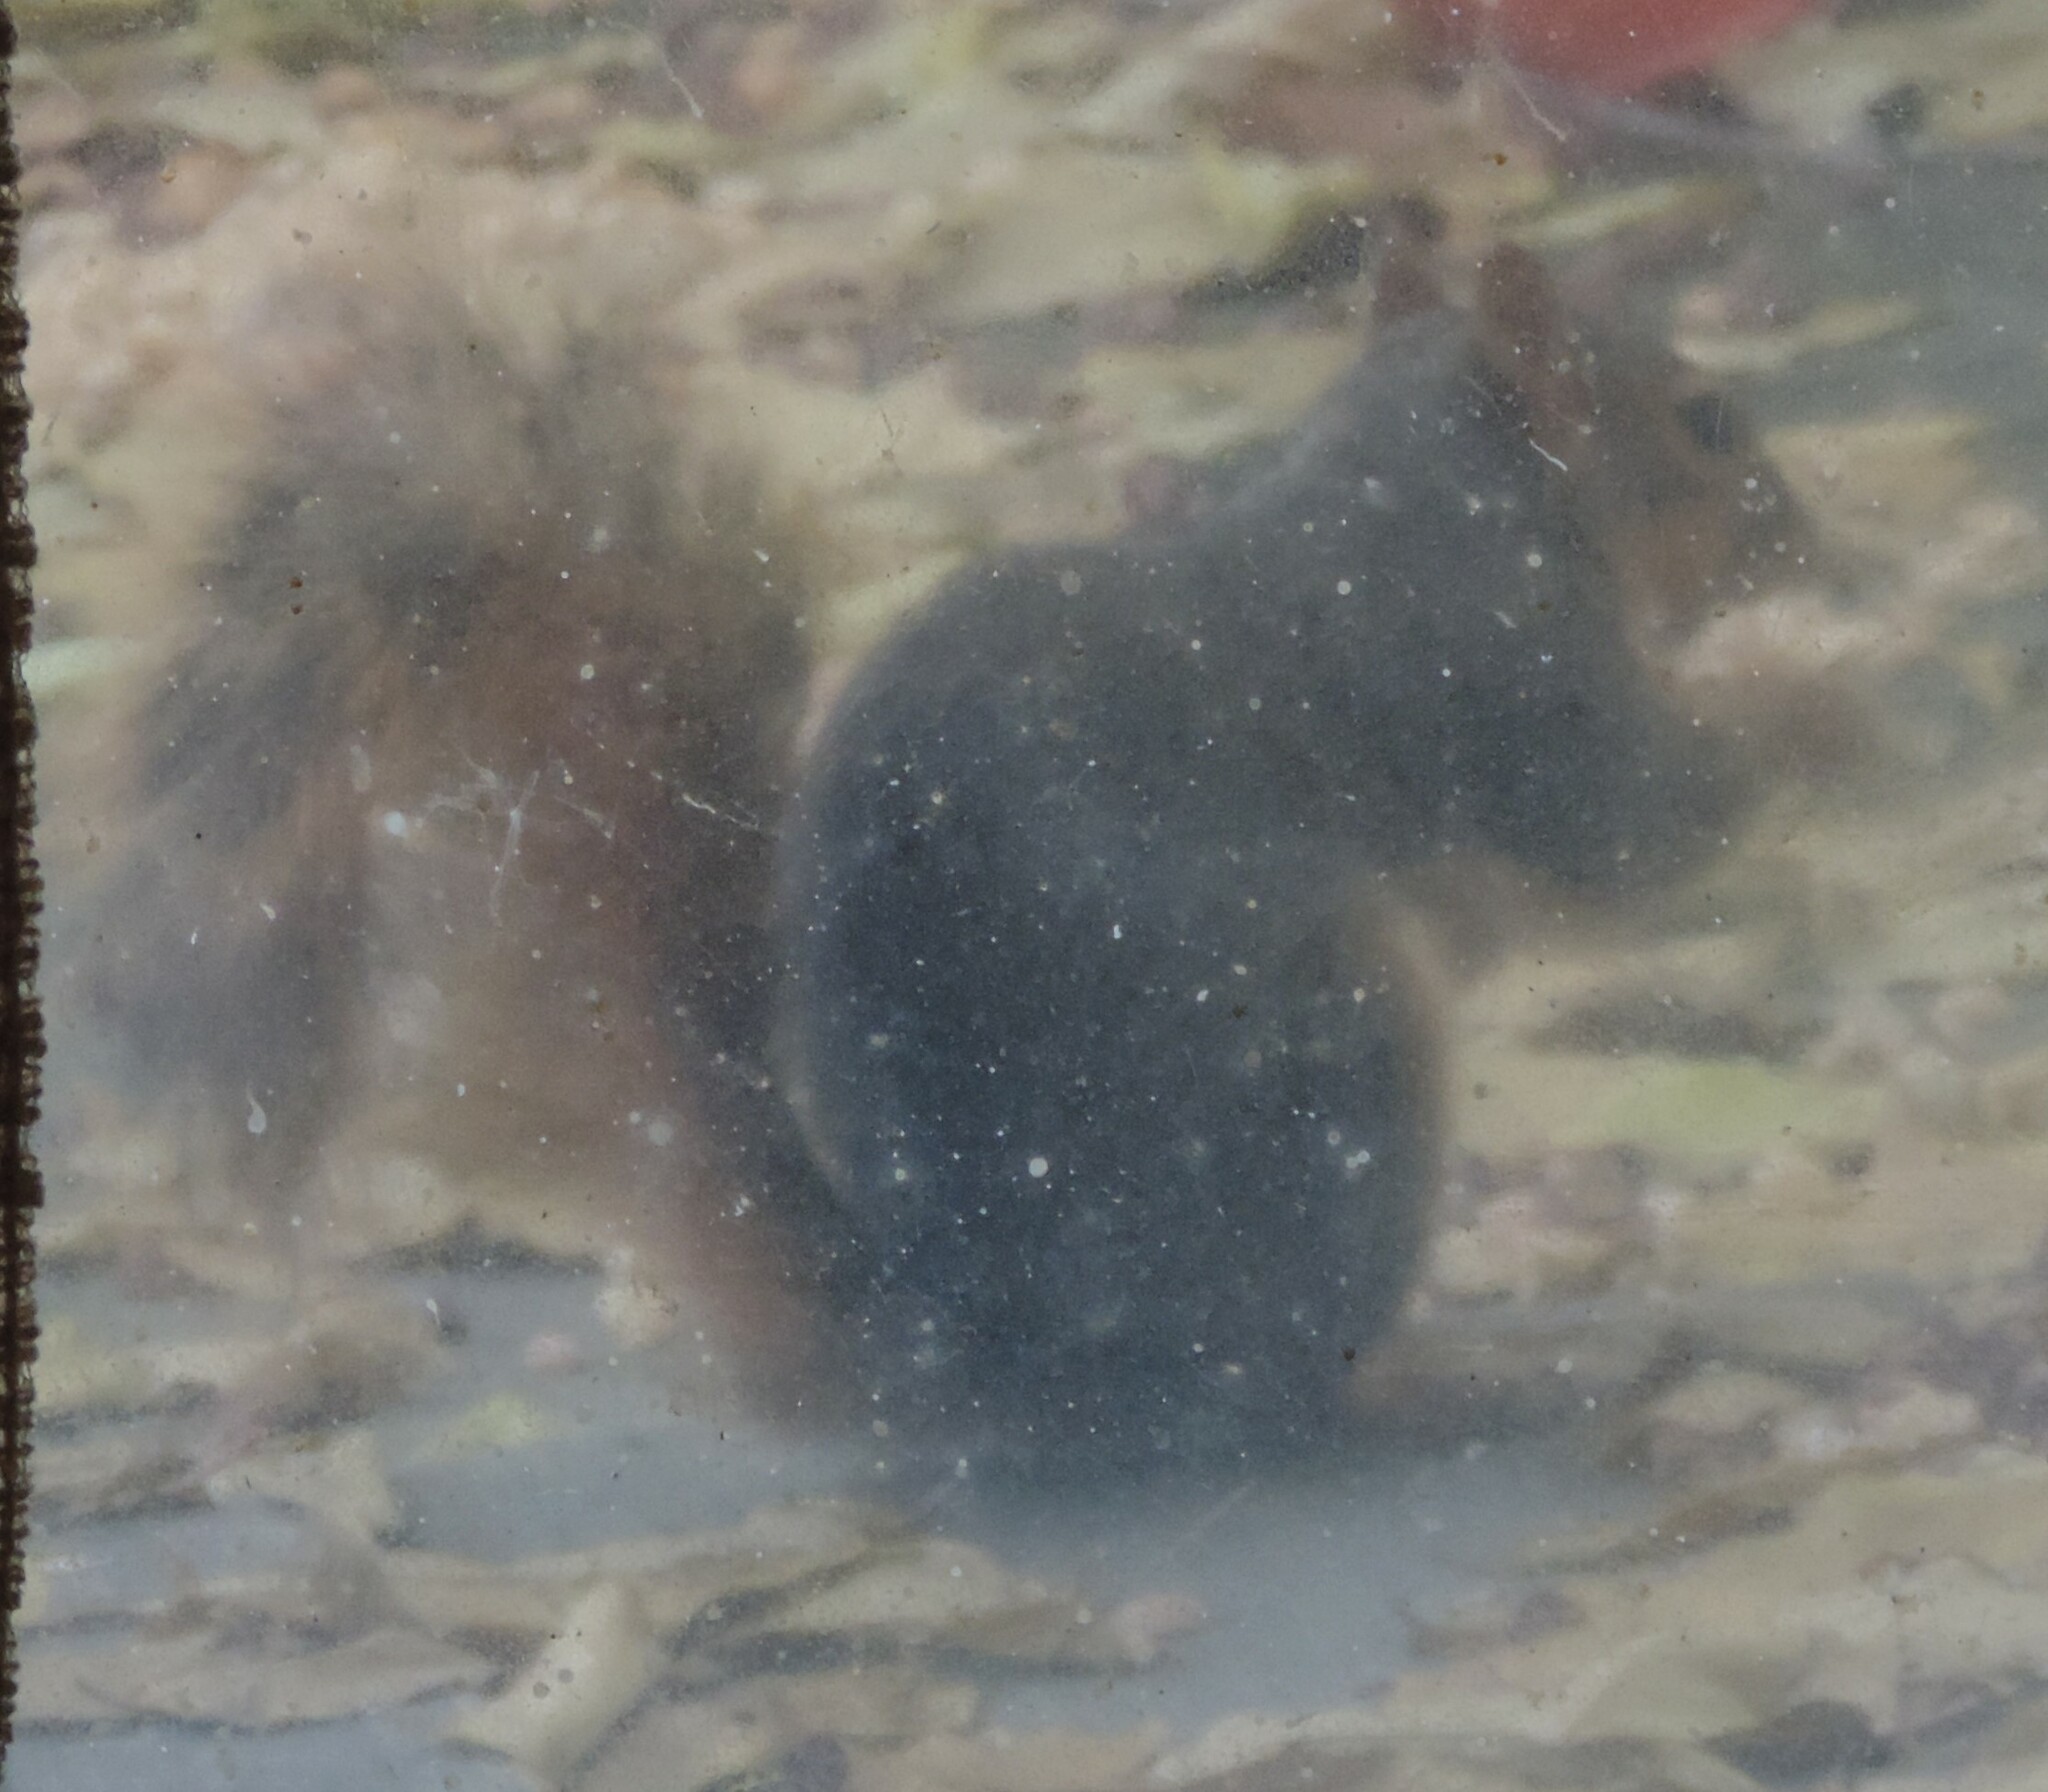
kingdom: Animalia
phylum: Chordata
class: Mammalia
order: Rodentia
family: Sciuridae
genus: Sciurus
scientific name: Sciurus niger
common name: Fox squirrel
